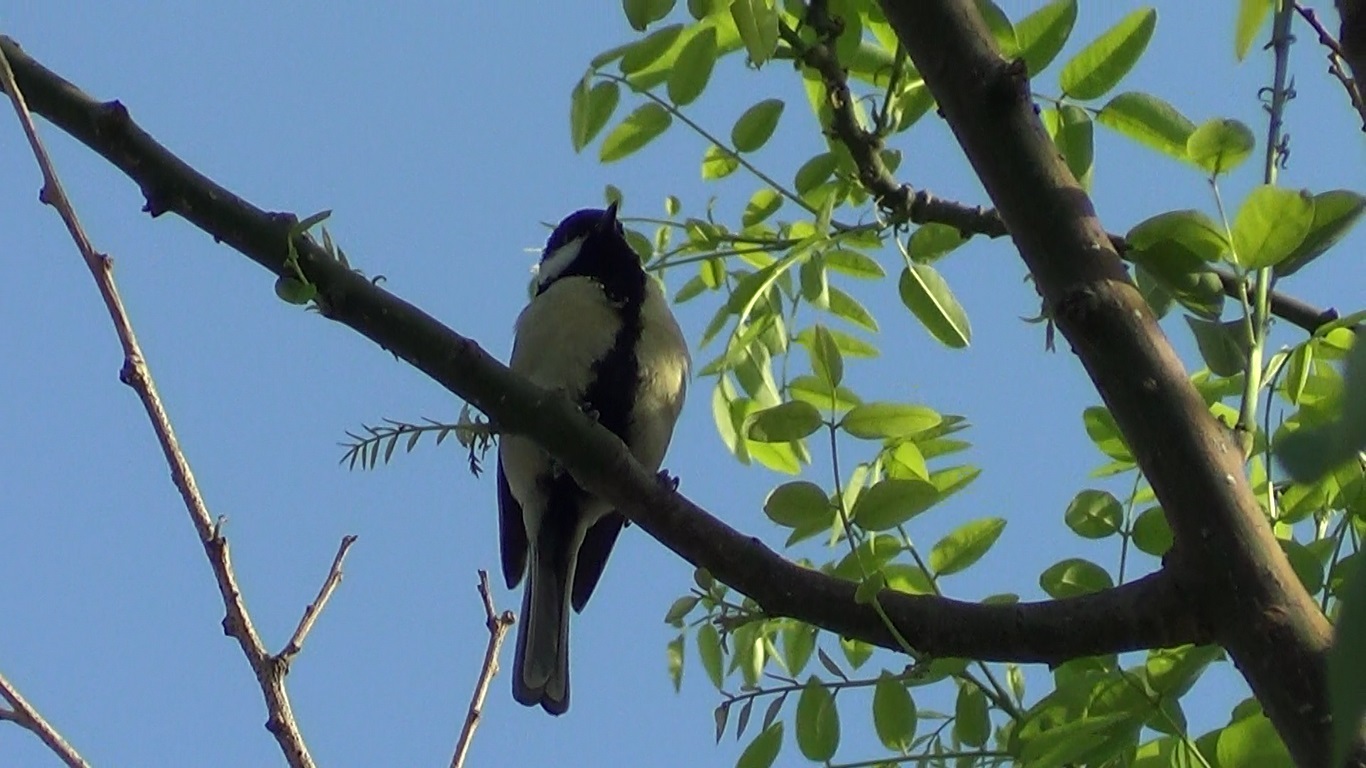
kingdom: Animalia
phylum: Chordata
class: Aves
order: Passeriformes
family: Paridae
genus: Parus
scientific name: Parus major
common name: Great tit
